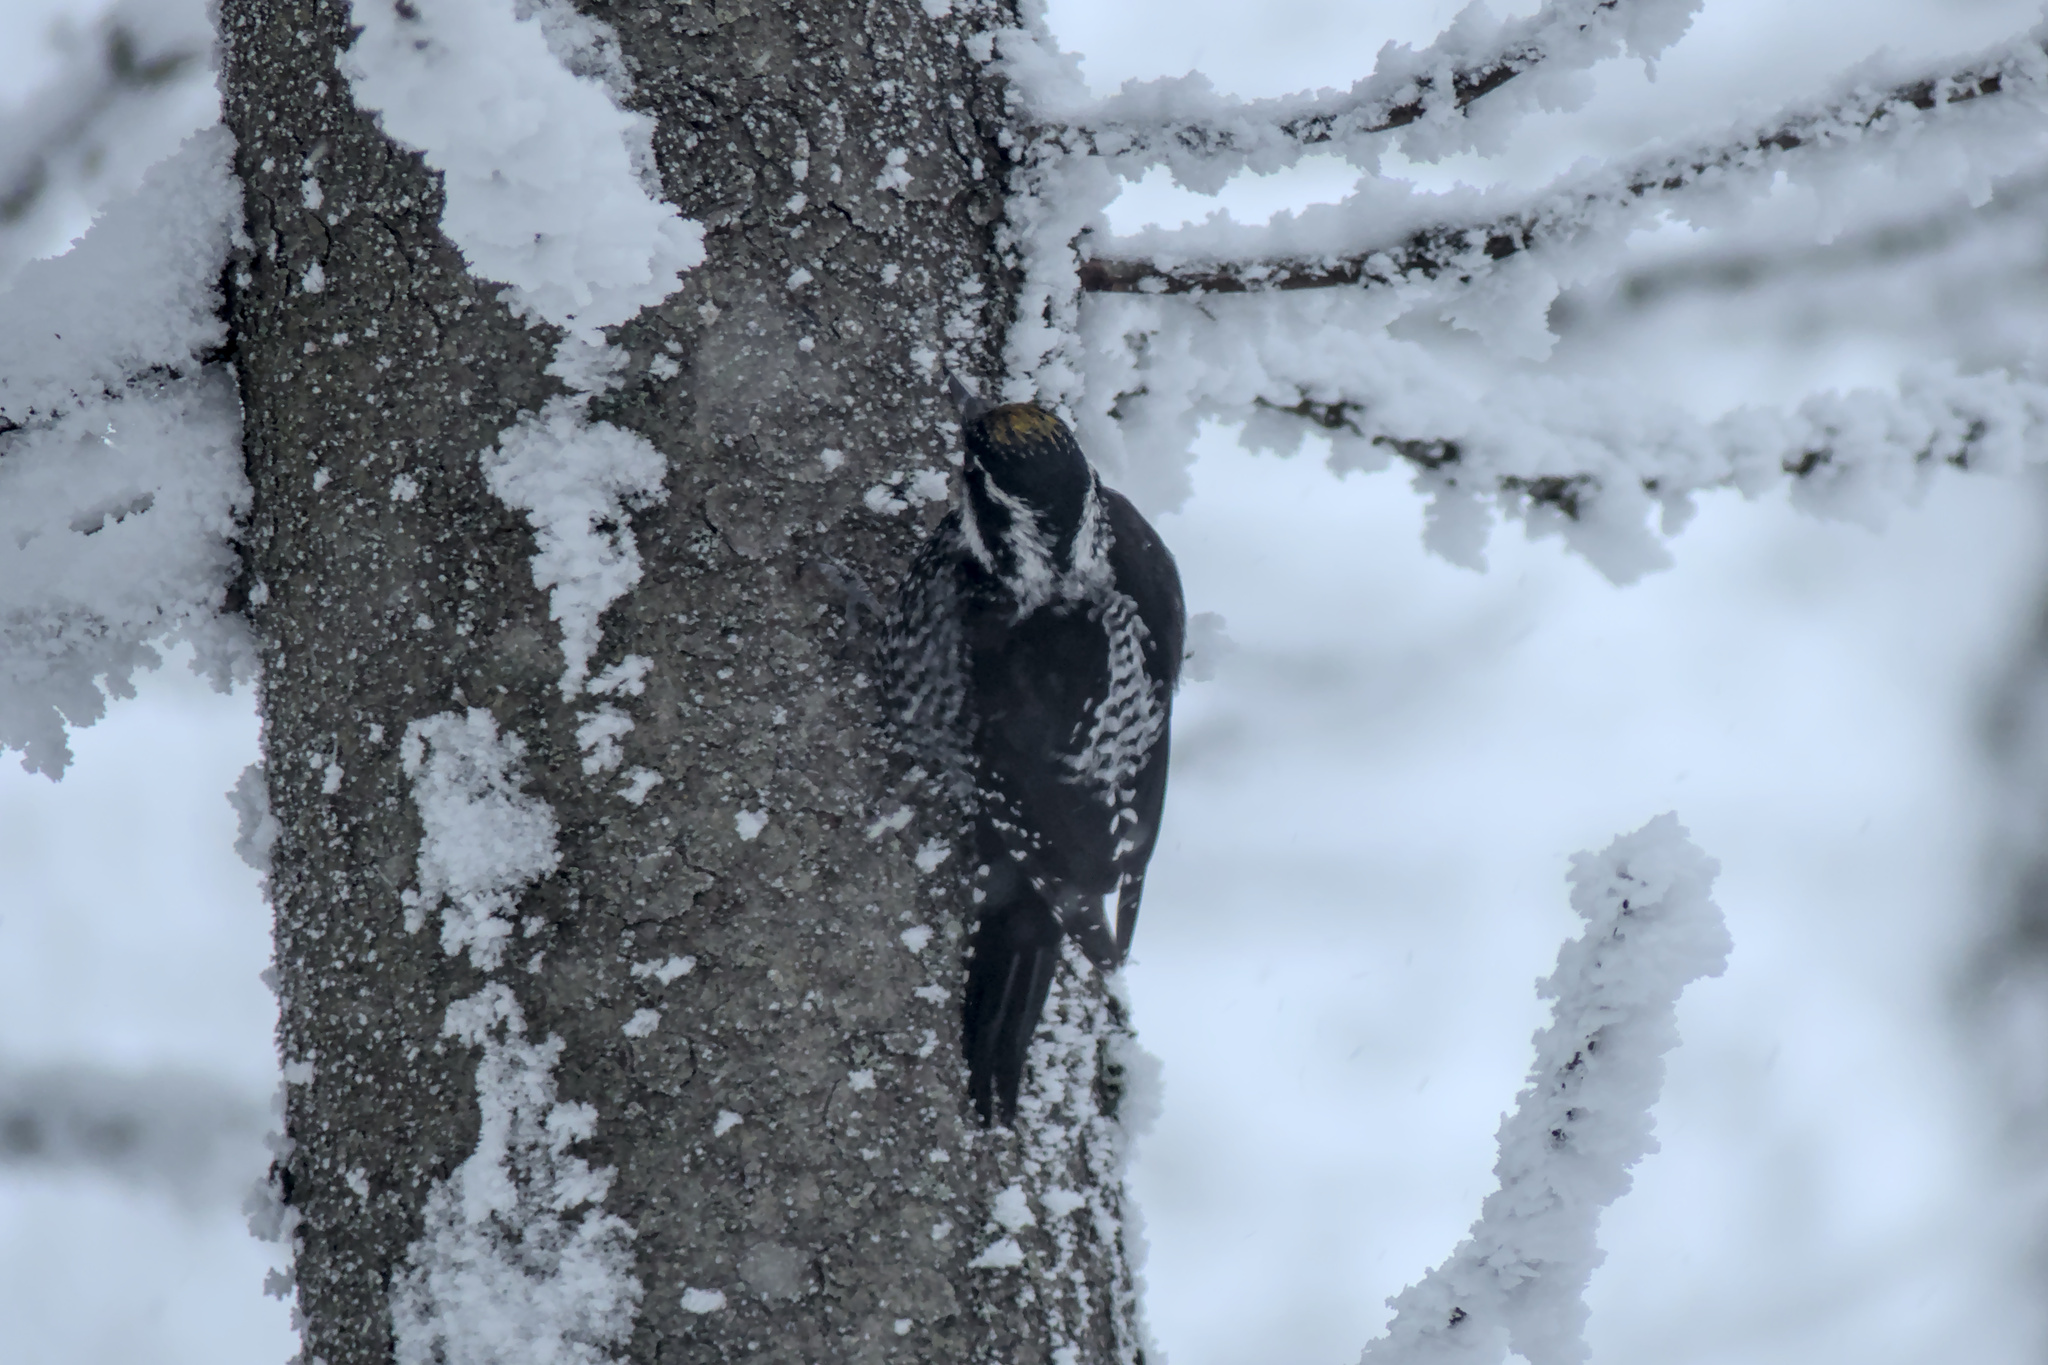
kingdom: Animalia
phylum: Chordata
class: Aves
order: Piciformes
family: Picidae
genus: Picoides
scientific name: Picoides tridactylus
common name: Eurasian three-toed woodpecker
